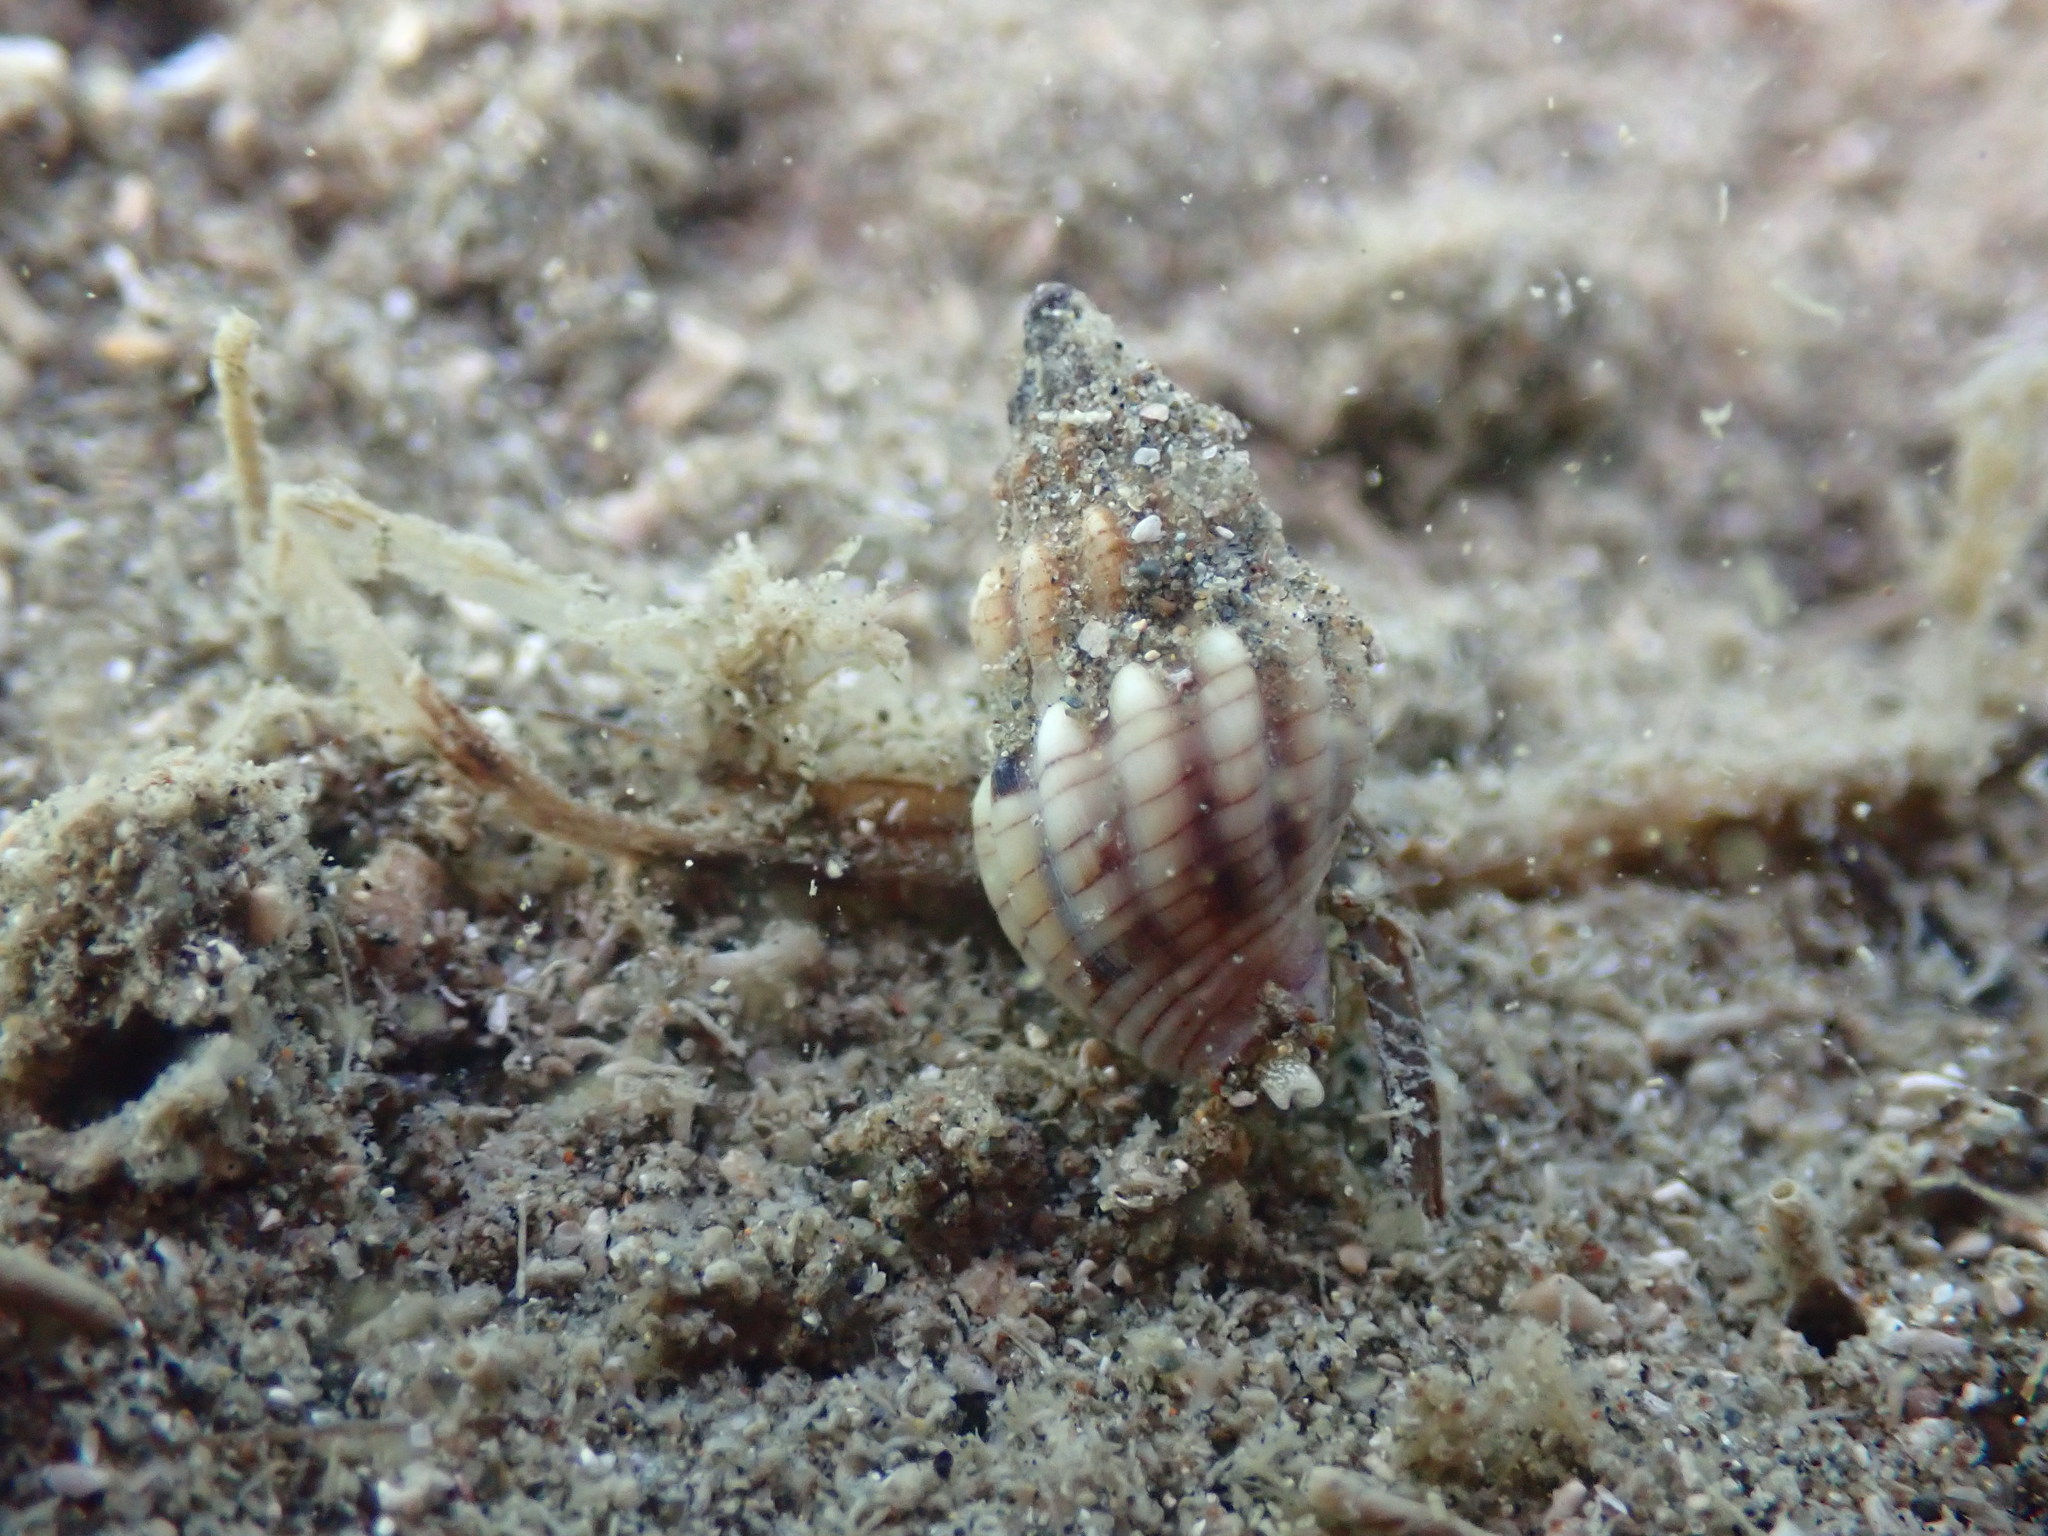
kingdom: Animalia
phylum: Mollusca
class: Gastropoda
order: Neogastropoda
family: Cominellidae
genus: Cominella
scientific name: Cominella quoyana
